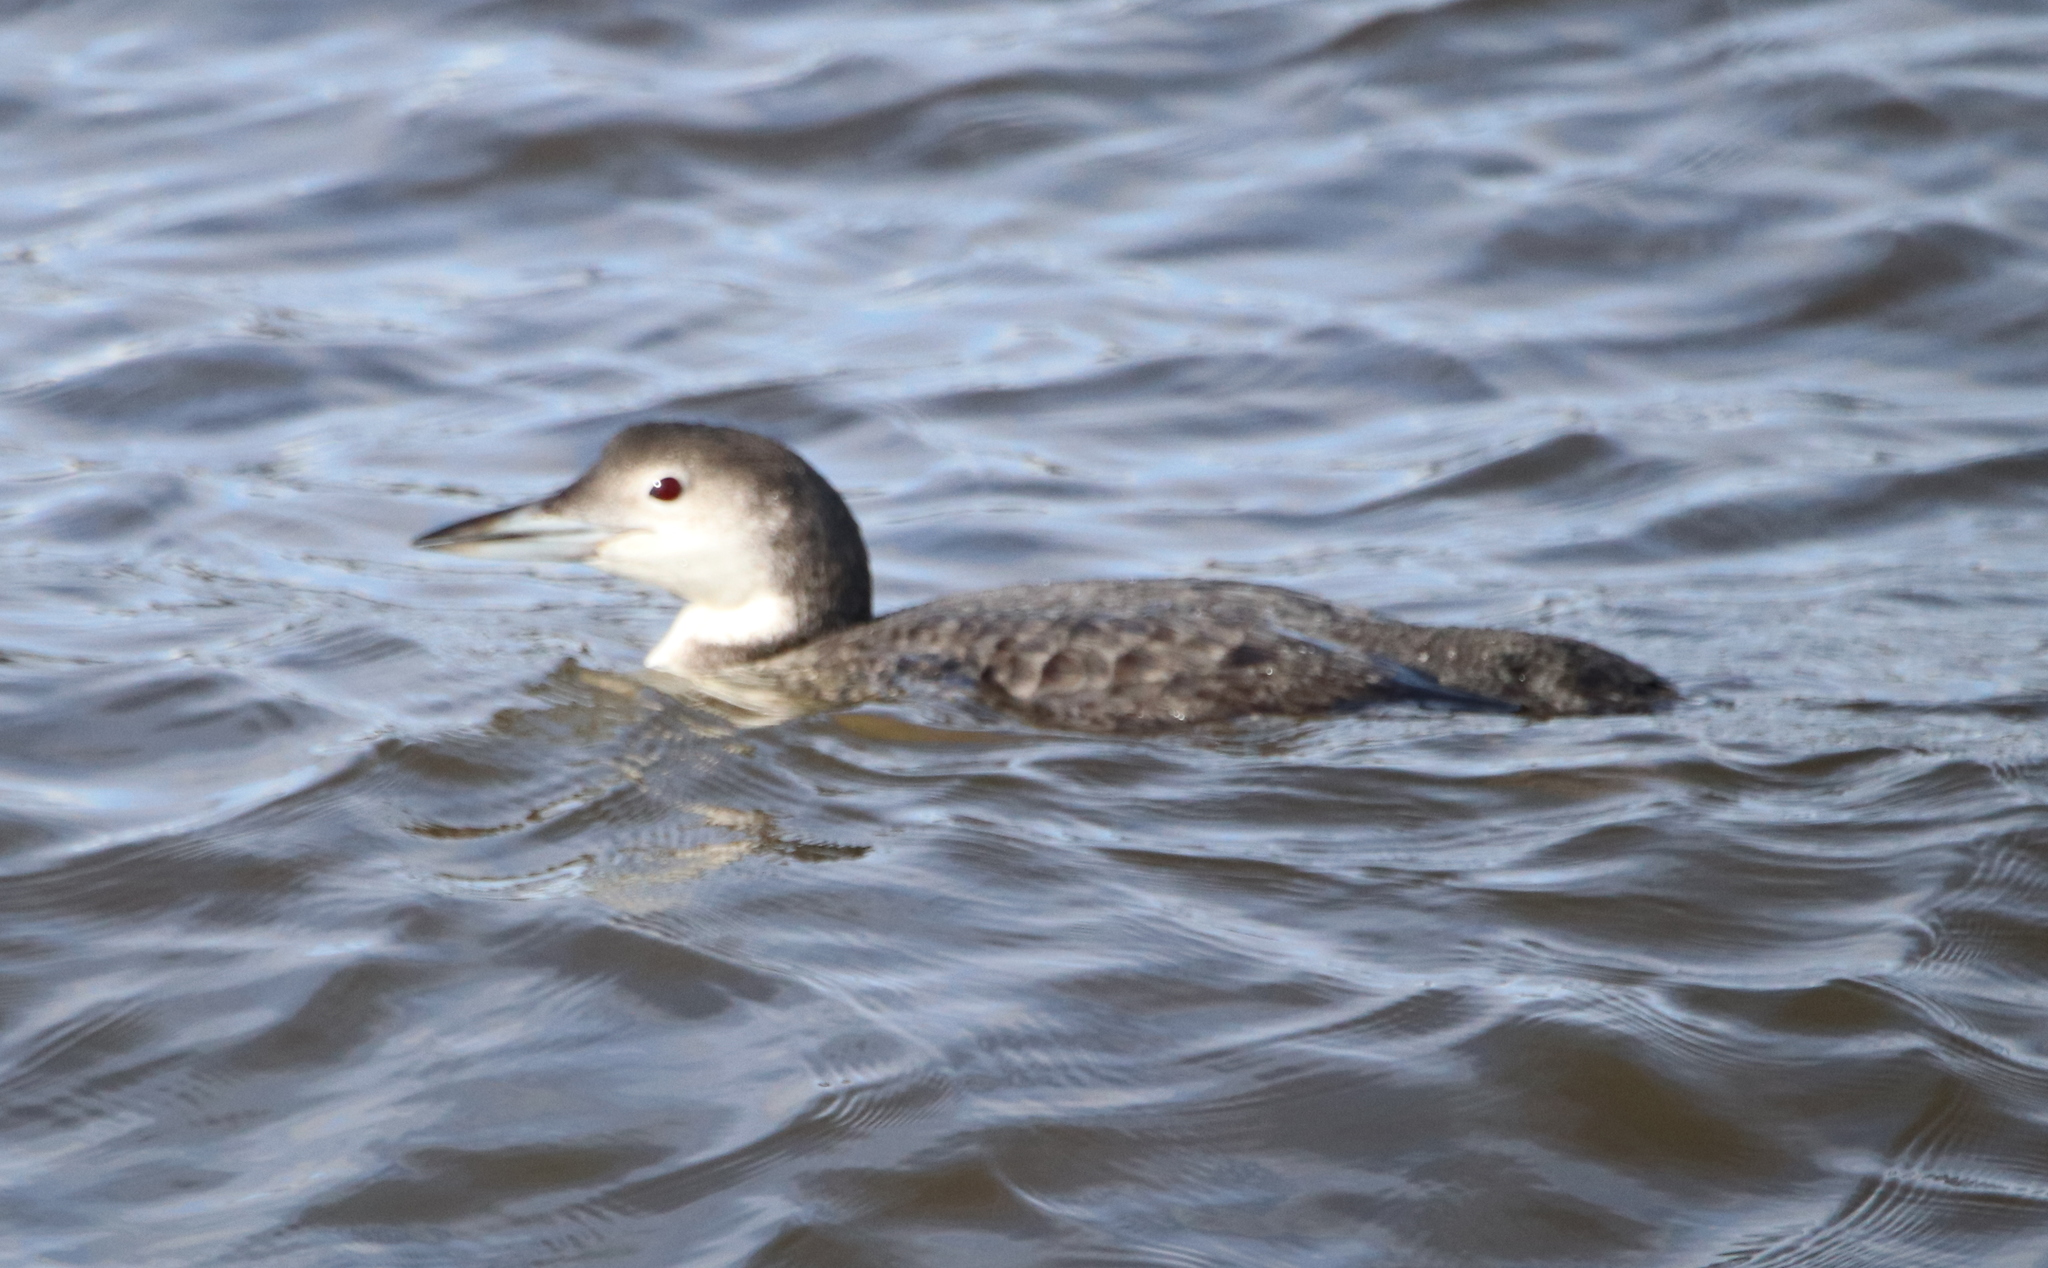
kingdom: Animalia
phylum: Chordata
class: Aves
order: Gaviiformes
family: Gaviidae
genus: Gavia
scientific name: Gavia immer
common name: Common loon
